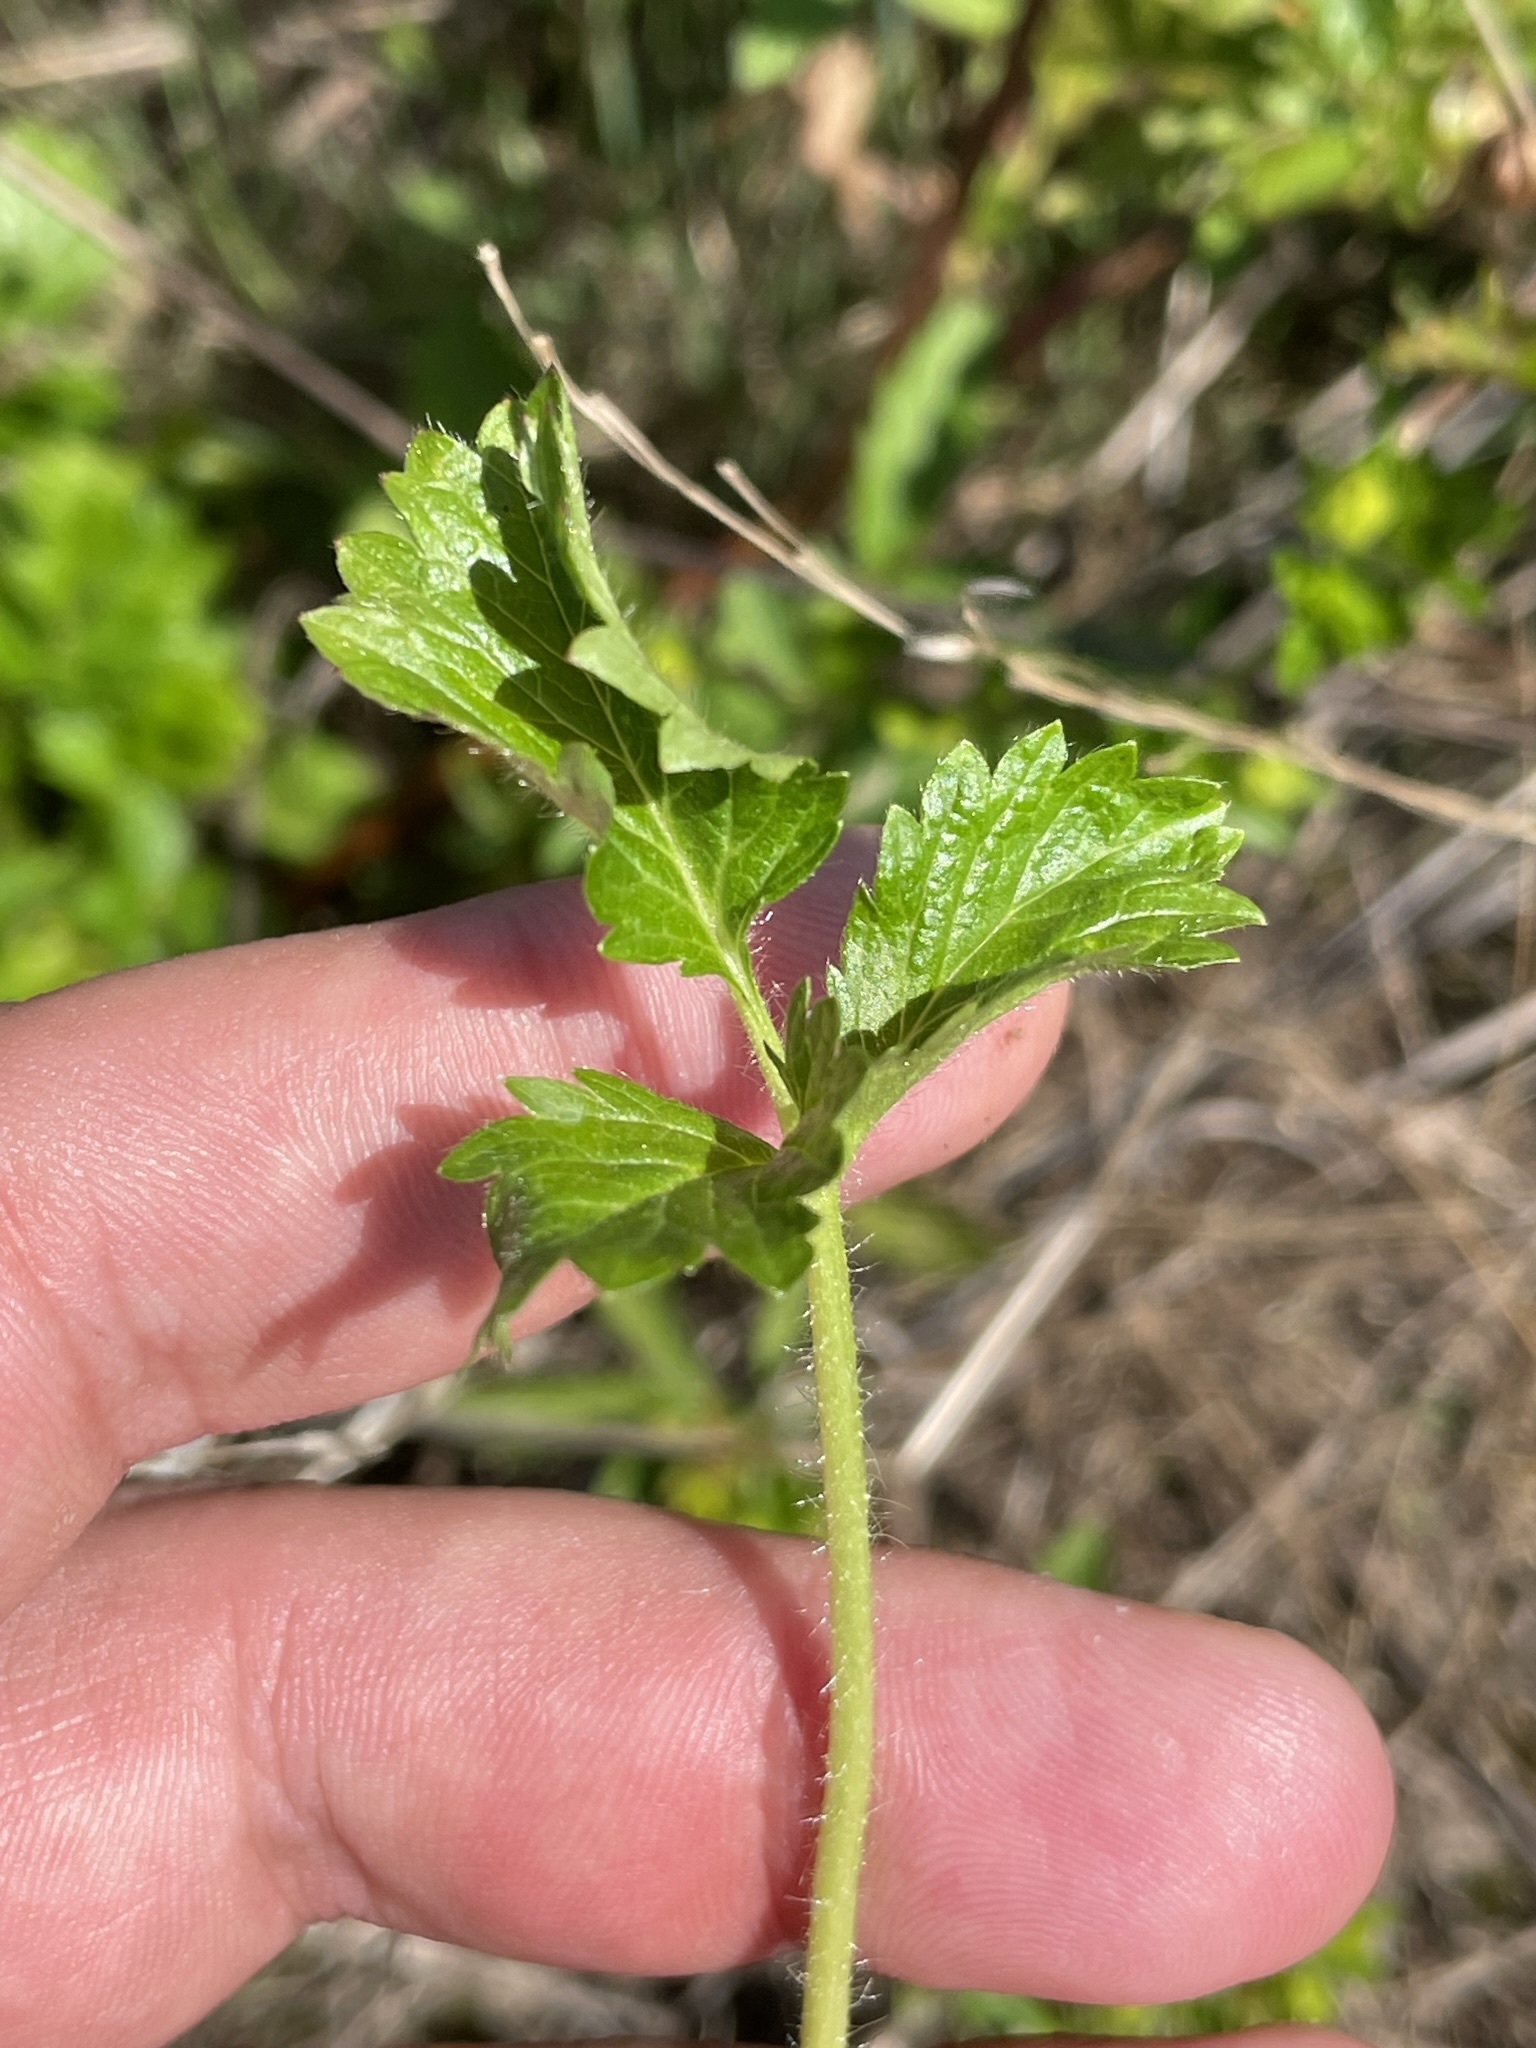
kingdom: Plantae
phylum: Tracheophyta
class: Magnoliopsida
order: Rosales
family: Rosaceae
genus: Potentilla
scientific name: Potentilla norvegica
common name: Ternate-leaved cinquefoil
